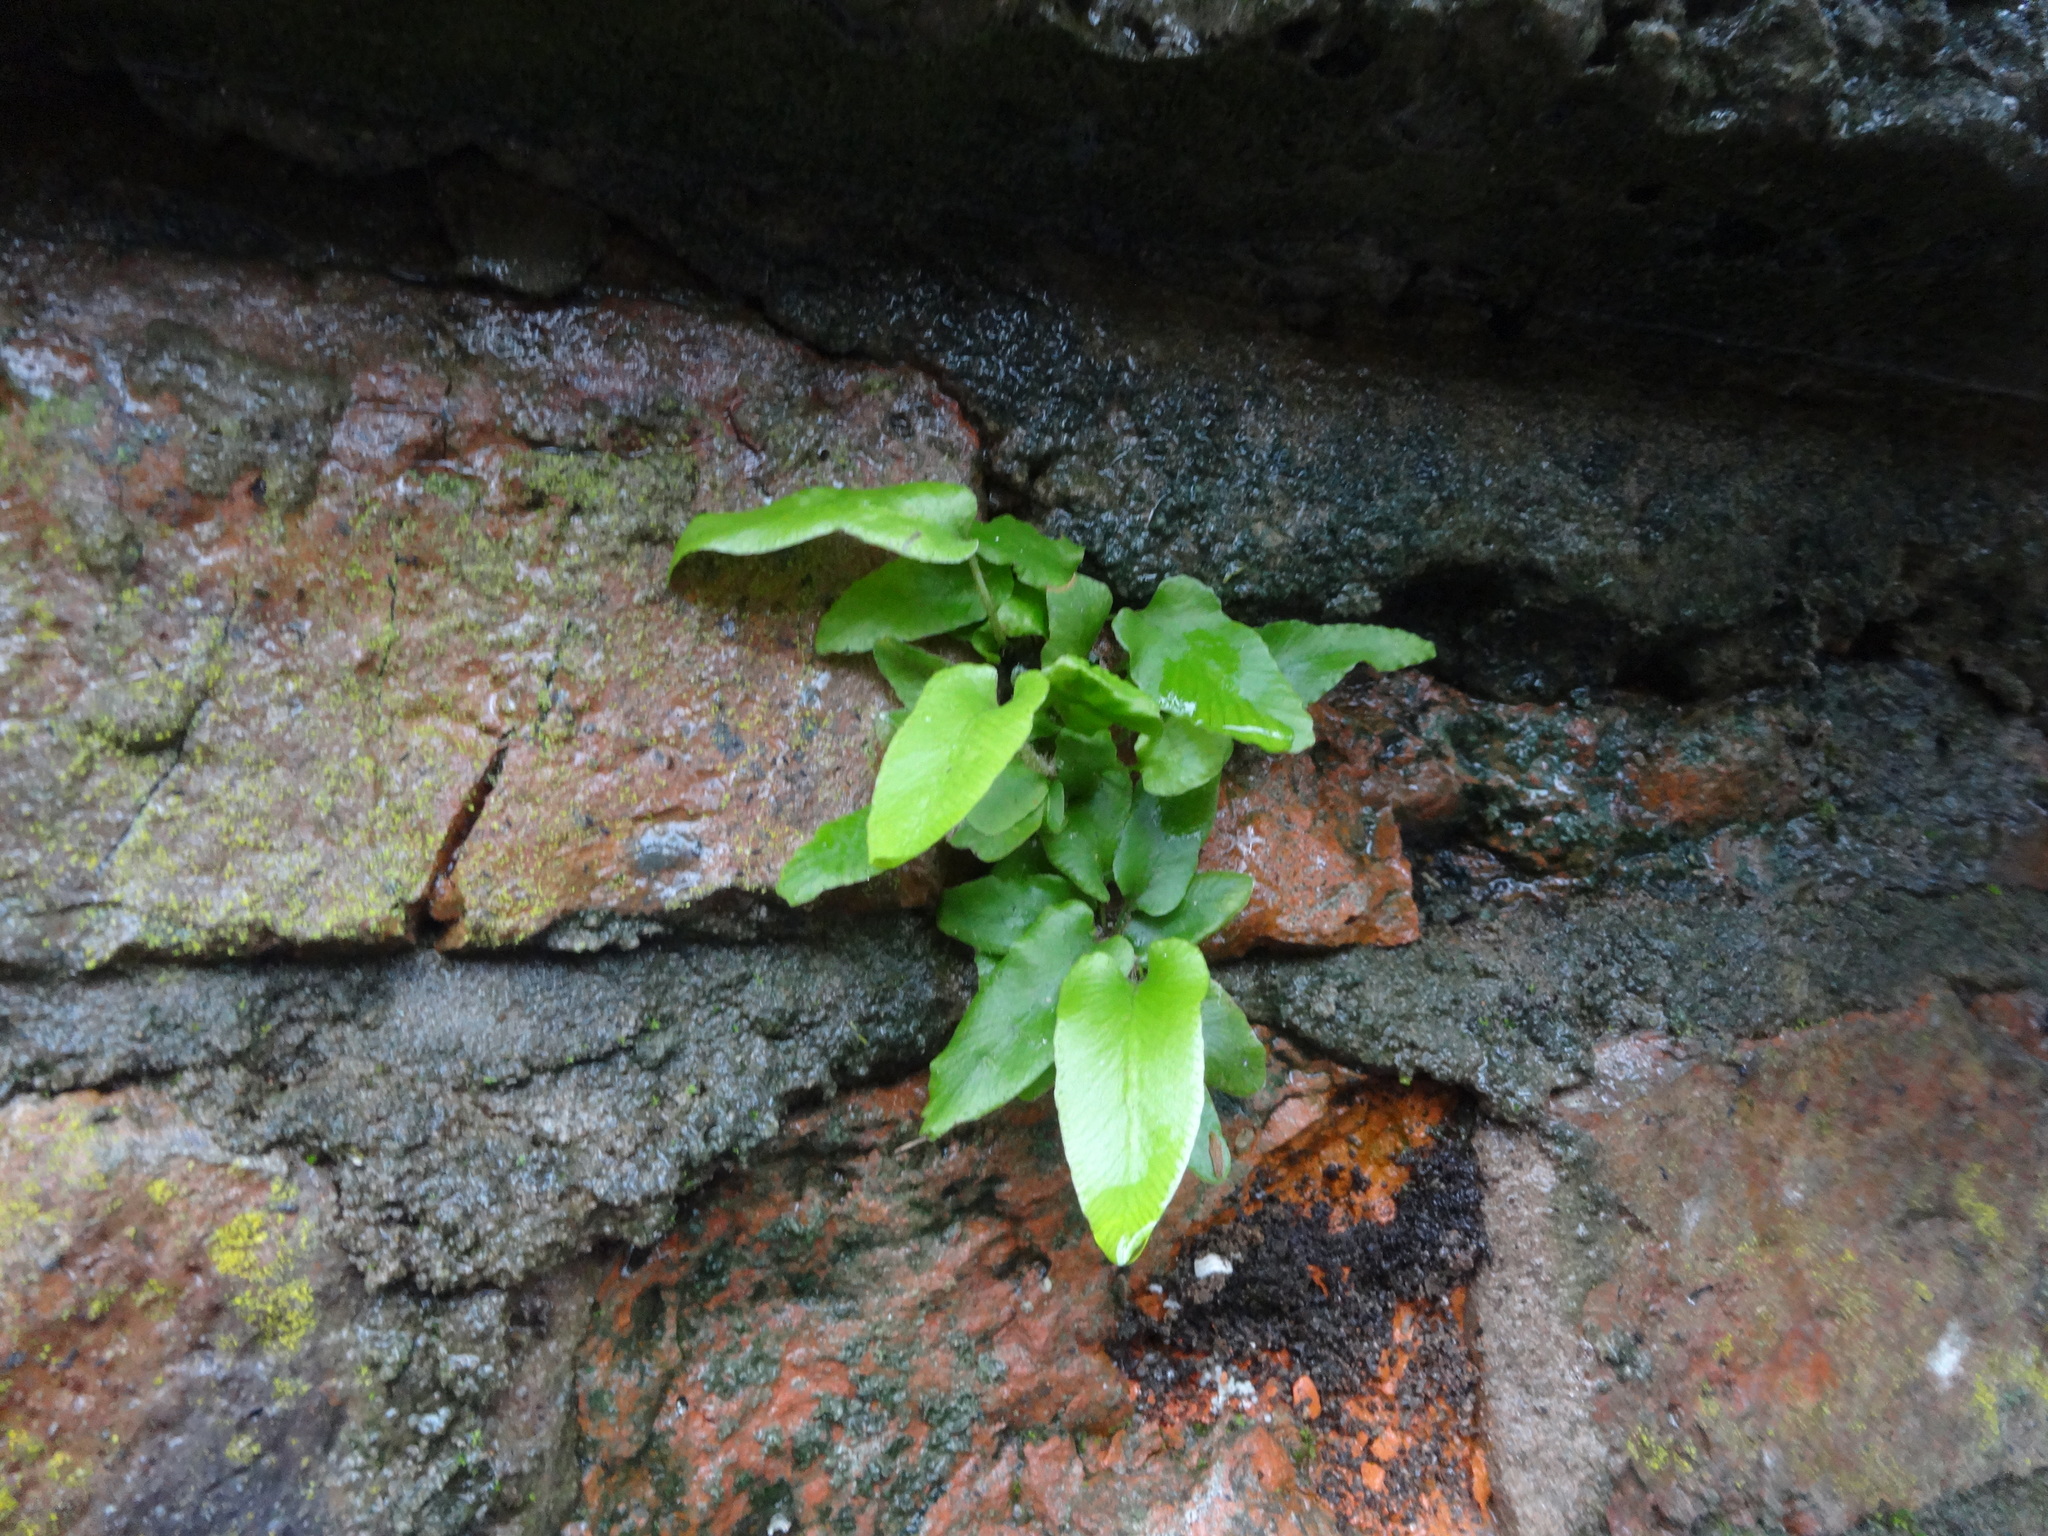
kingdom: Plantae
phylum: Tracheophyta
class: Polypodiopsida
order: Polypodiales
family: Aspleniaceae
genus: Asplenium
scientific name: Asplenium scolopendrium
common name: Hart's-tongue fern
